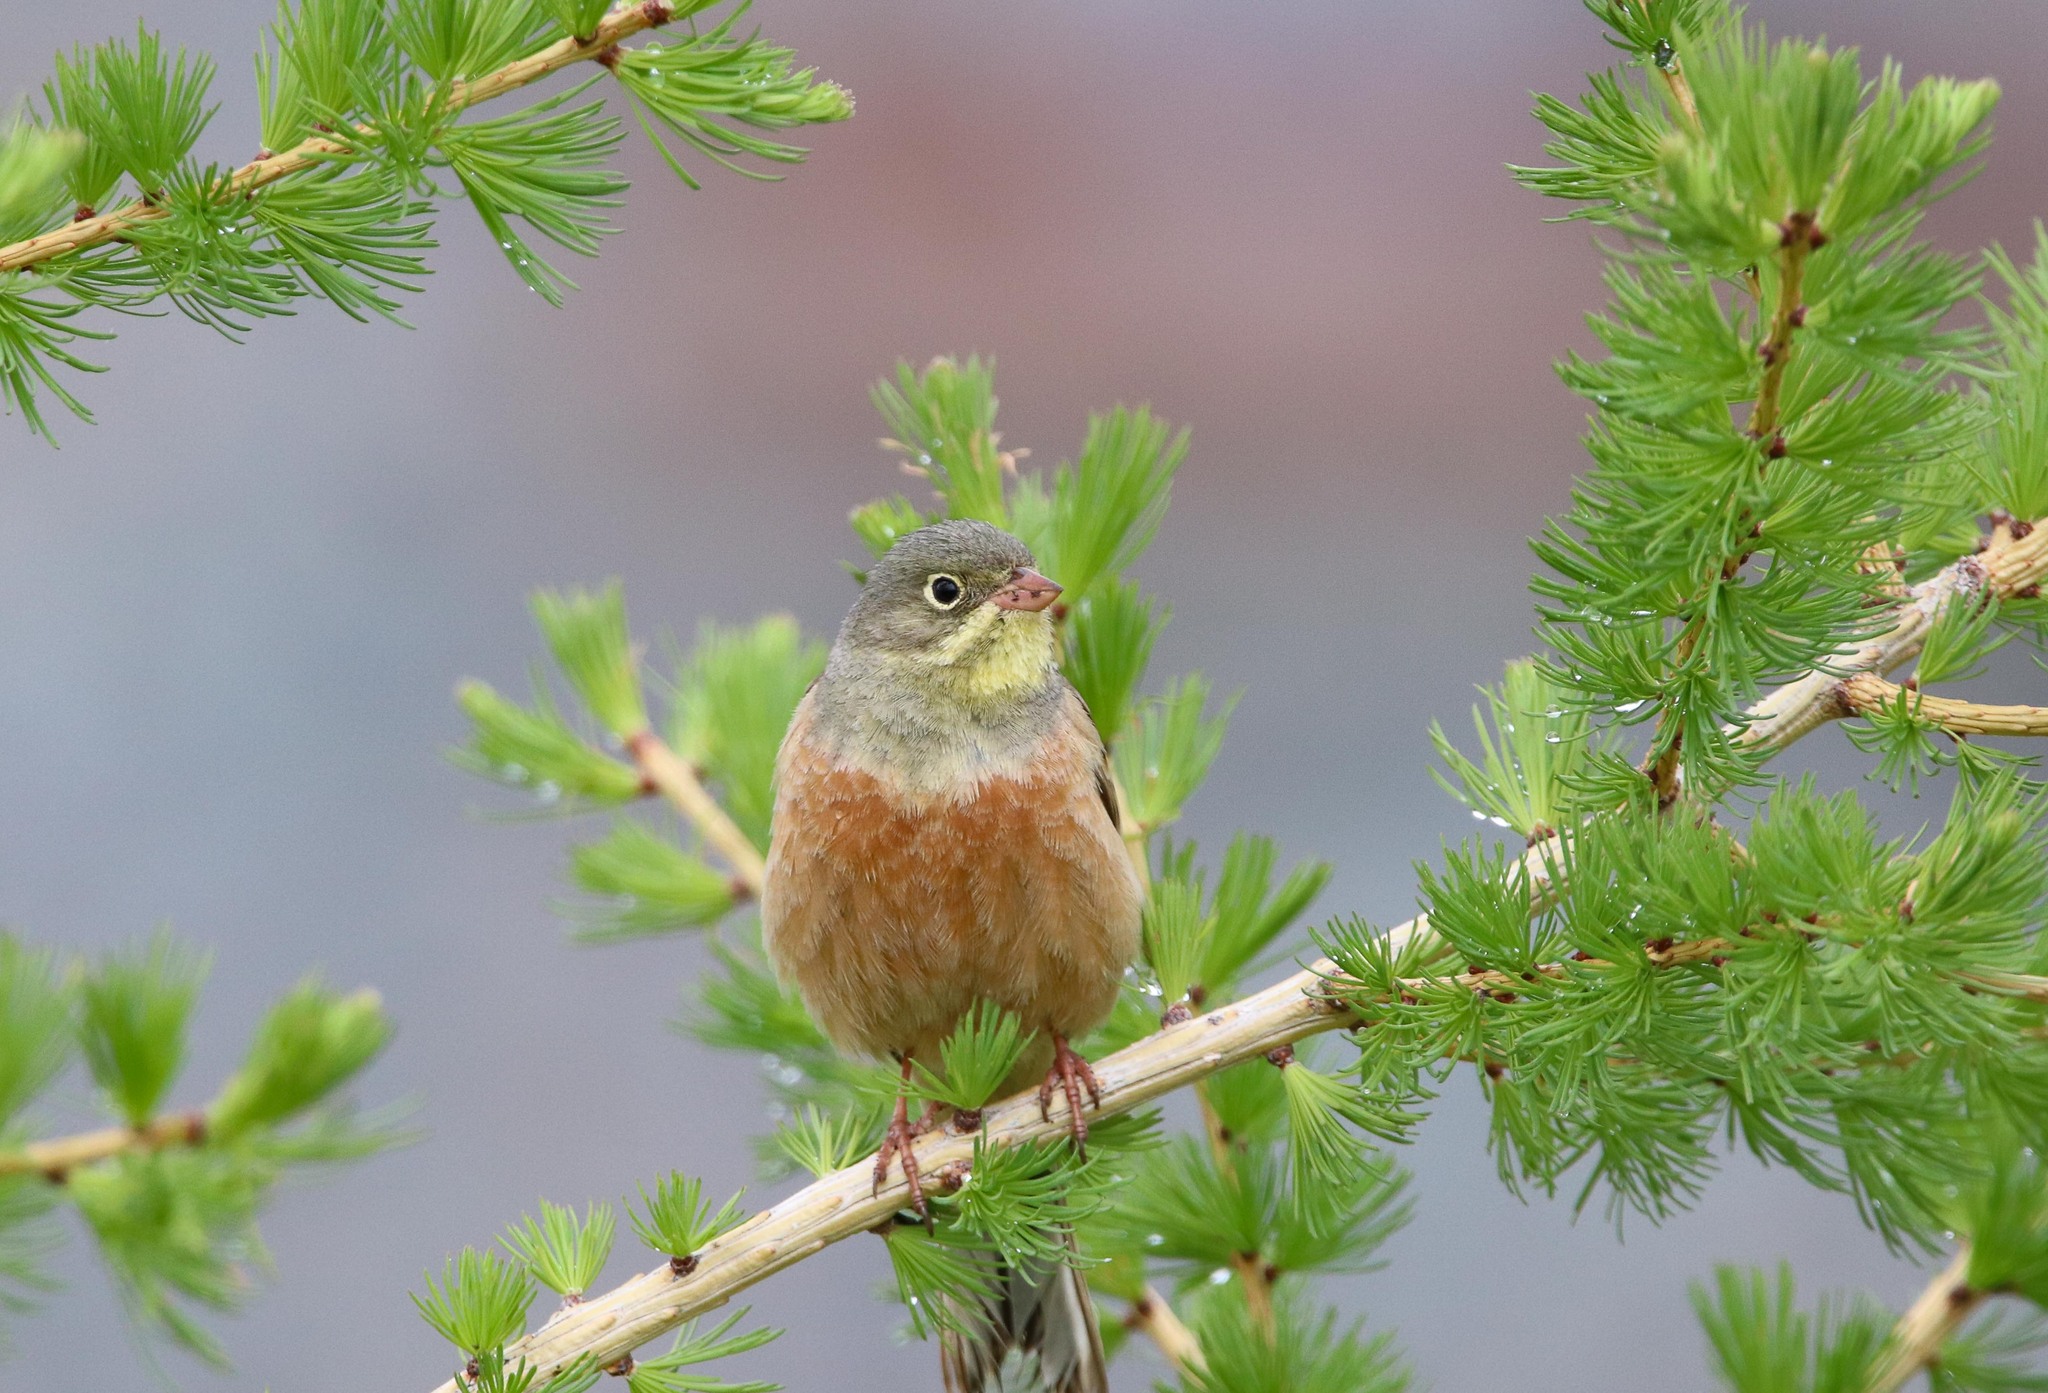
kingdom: Animalia
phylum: Chordata
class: Aves
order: Passeriformes
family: Emberizidae
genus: Emberiza
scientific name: Emberiza hortulana
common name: Ortolan bunting
